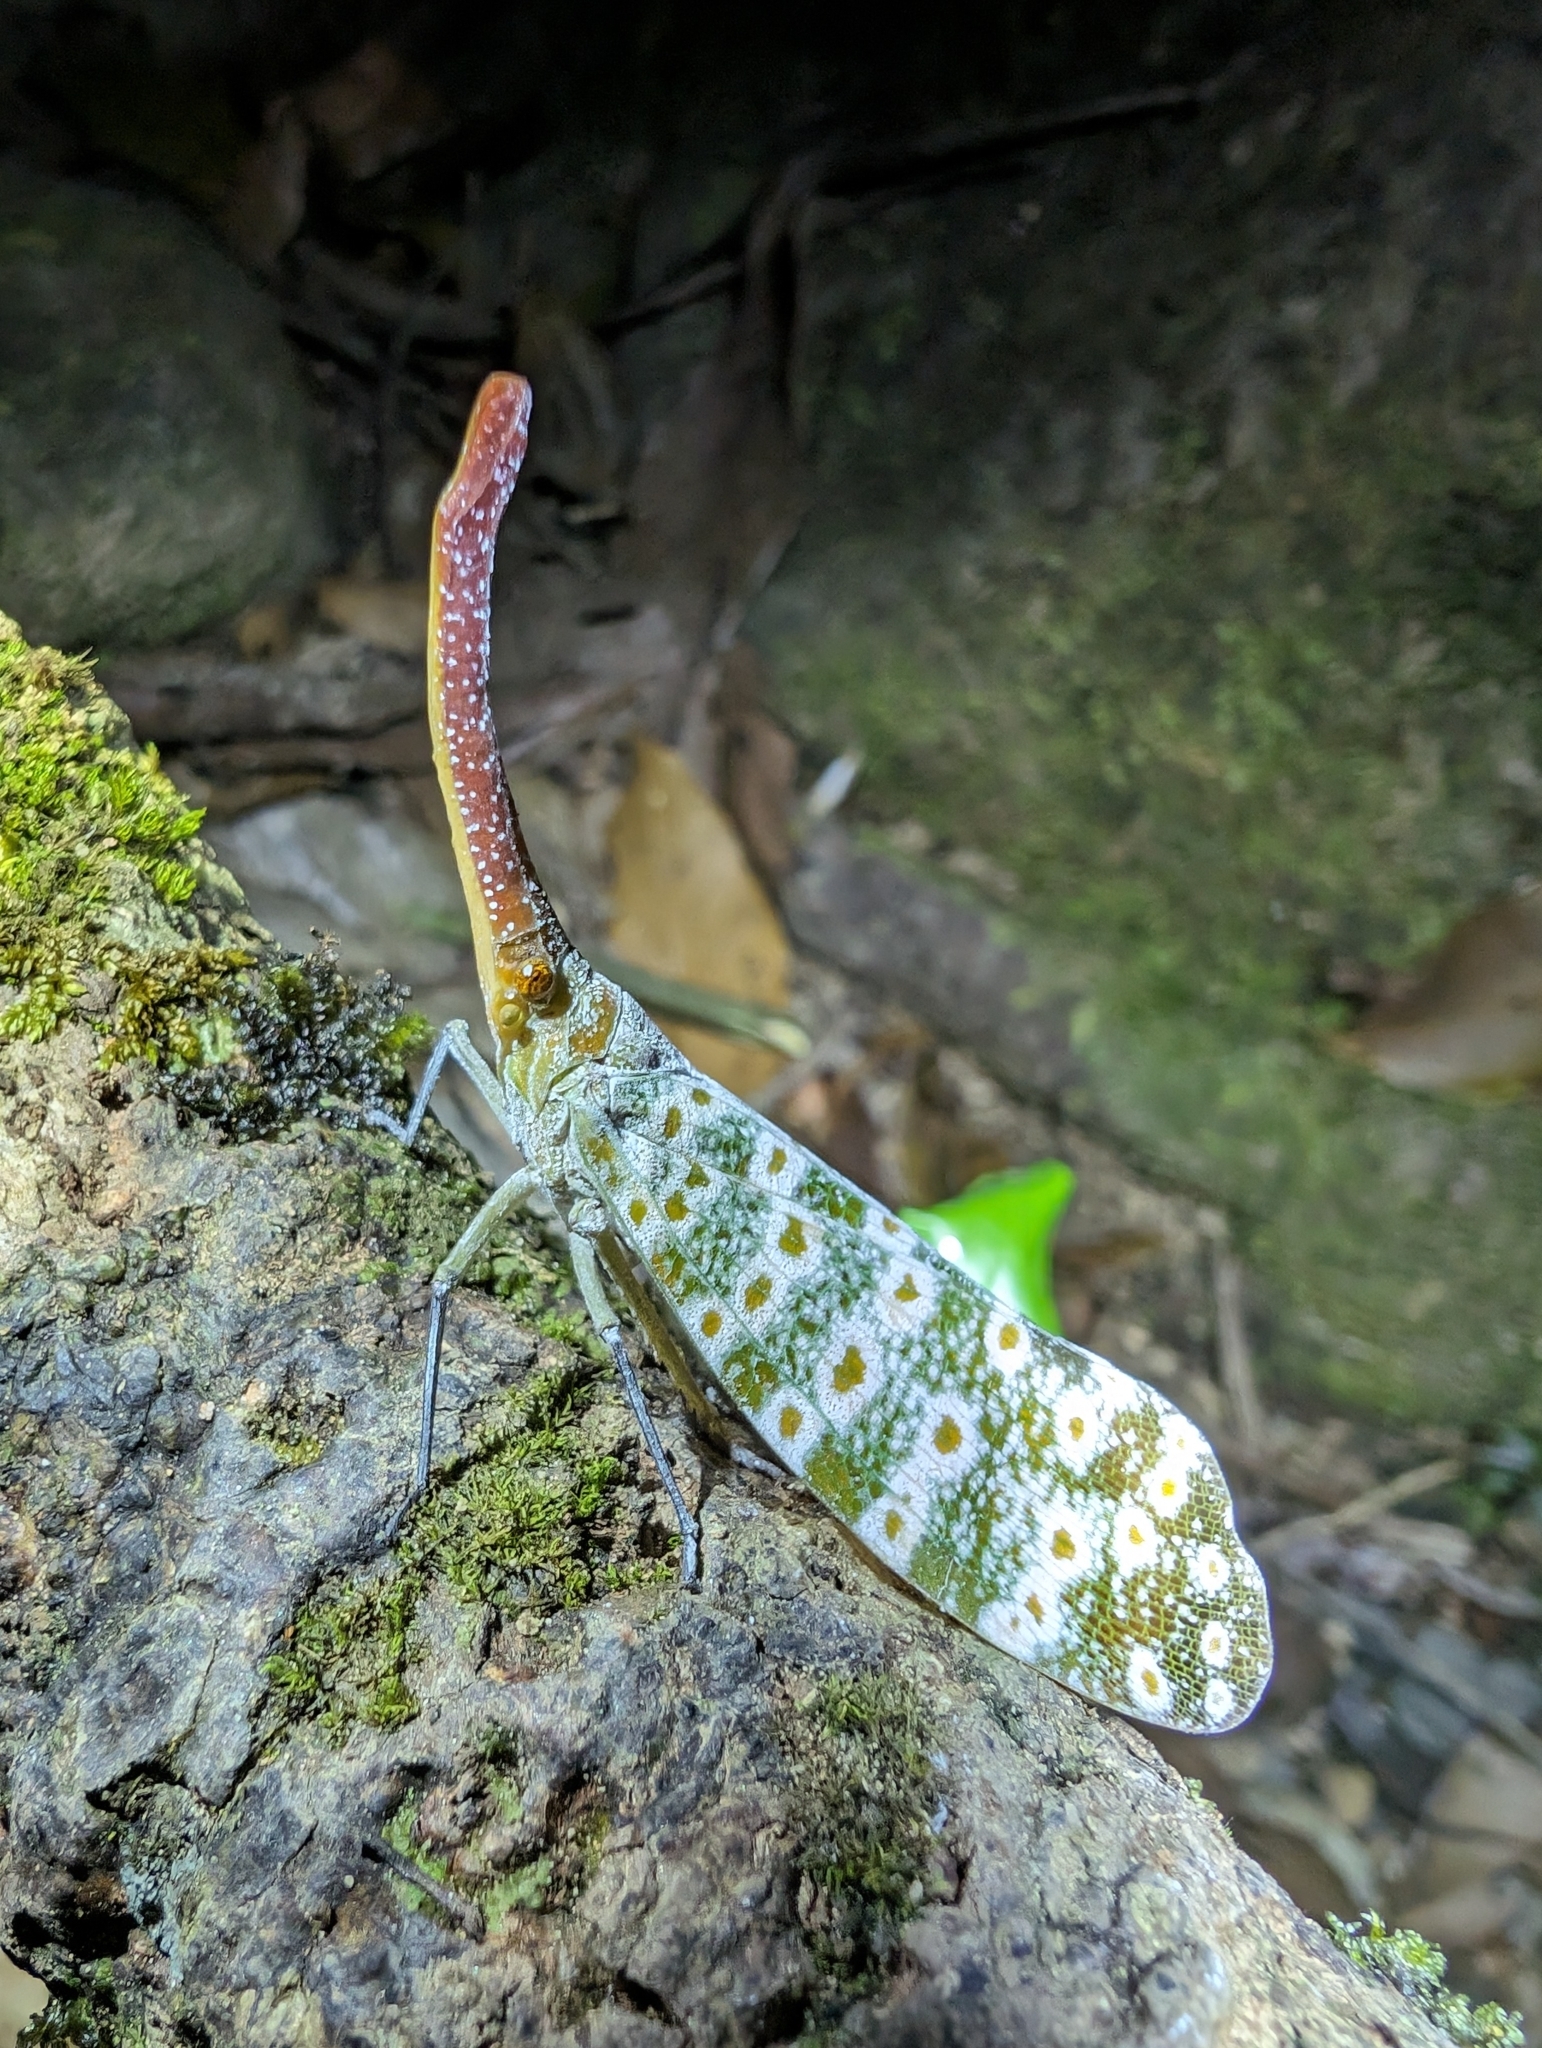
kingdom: Animalia
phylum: Arthropoda
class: Insecta
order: Hemiptera
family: Fulgoridae
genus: Pyrops
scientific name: Pyrops oculatus
